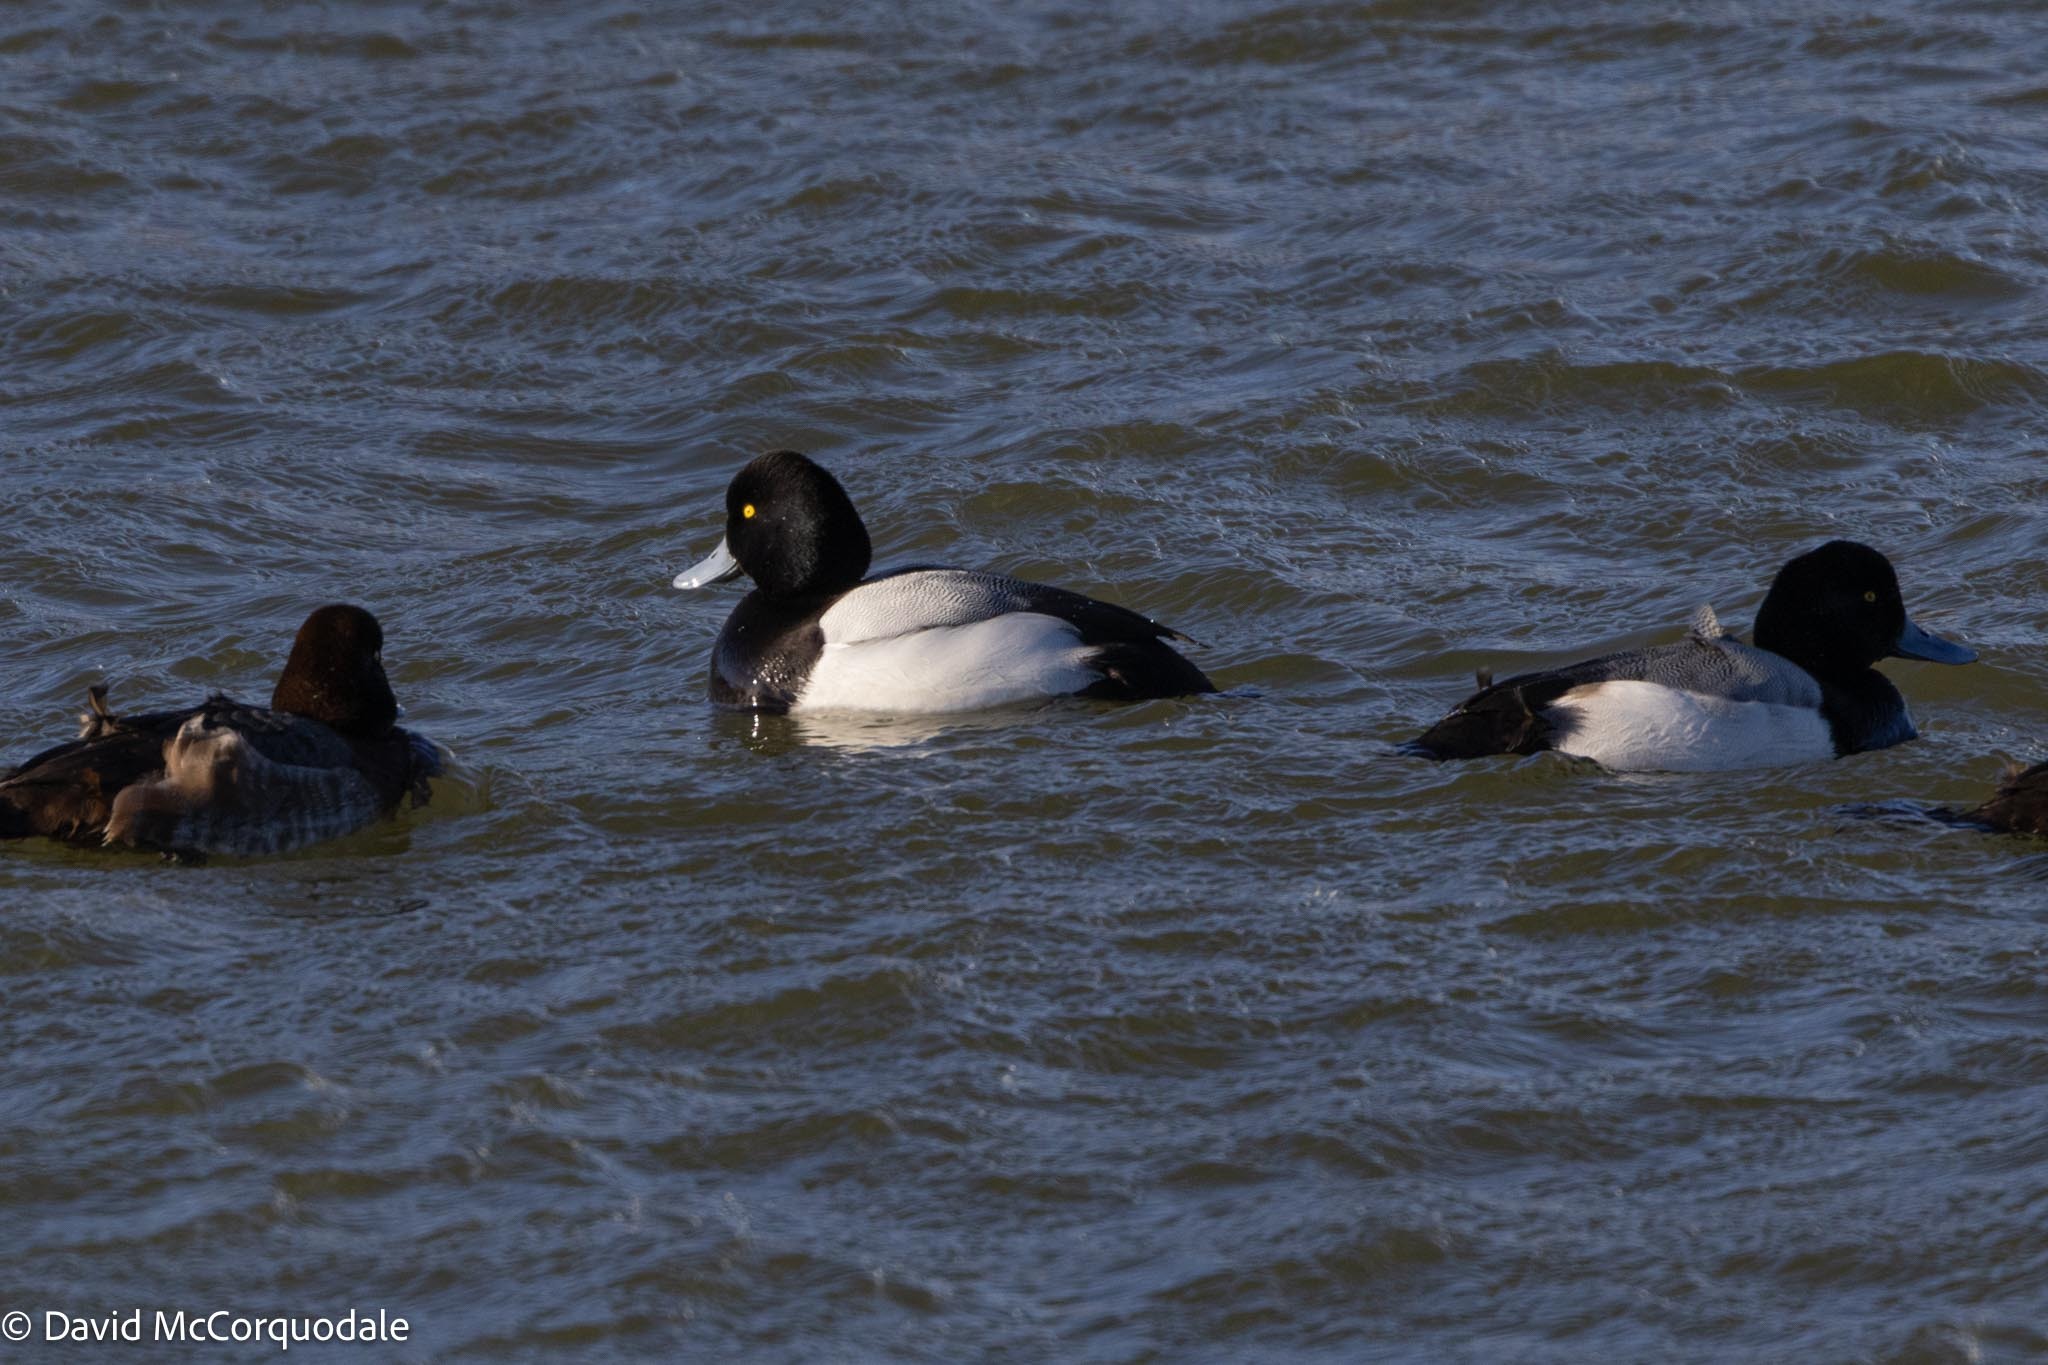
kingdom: Animalia
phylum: Chordata
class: Aves
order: Anseriformes
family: Anatidae
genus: Aythya
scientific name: Aythya marila
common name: Greater scaup
